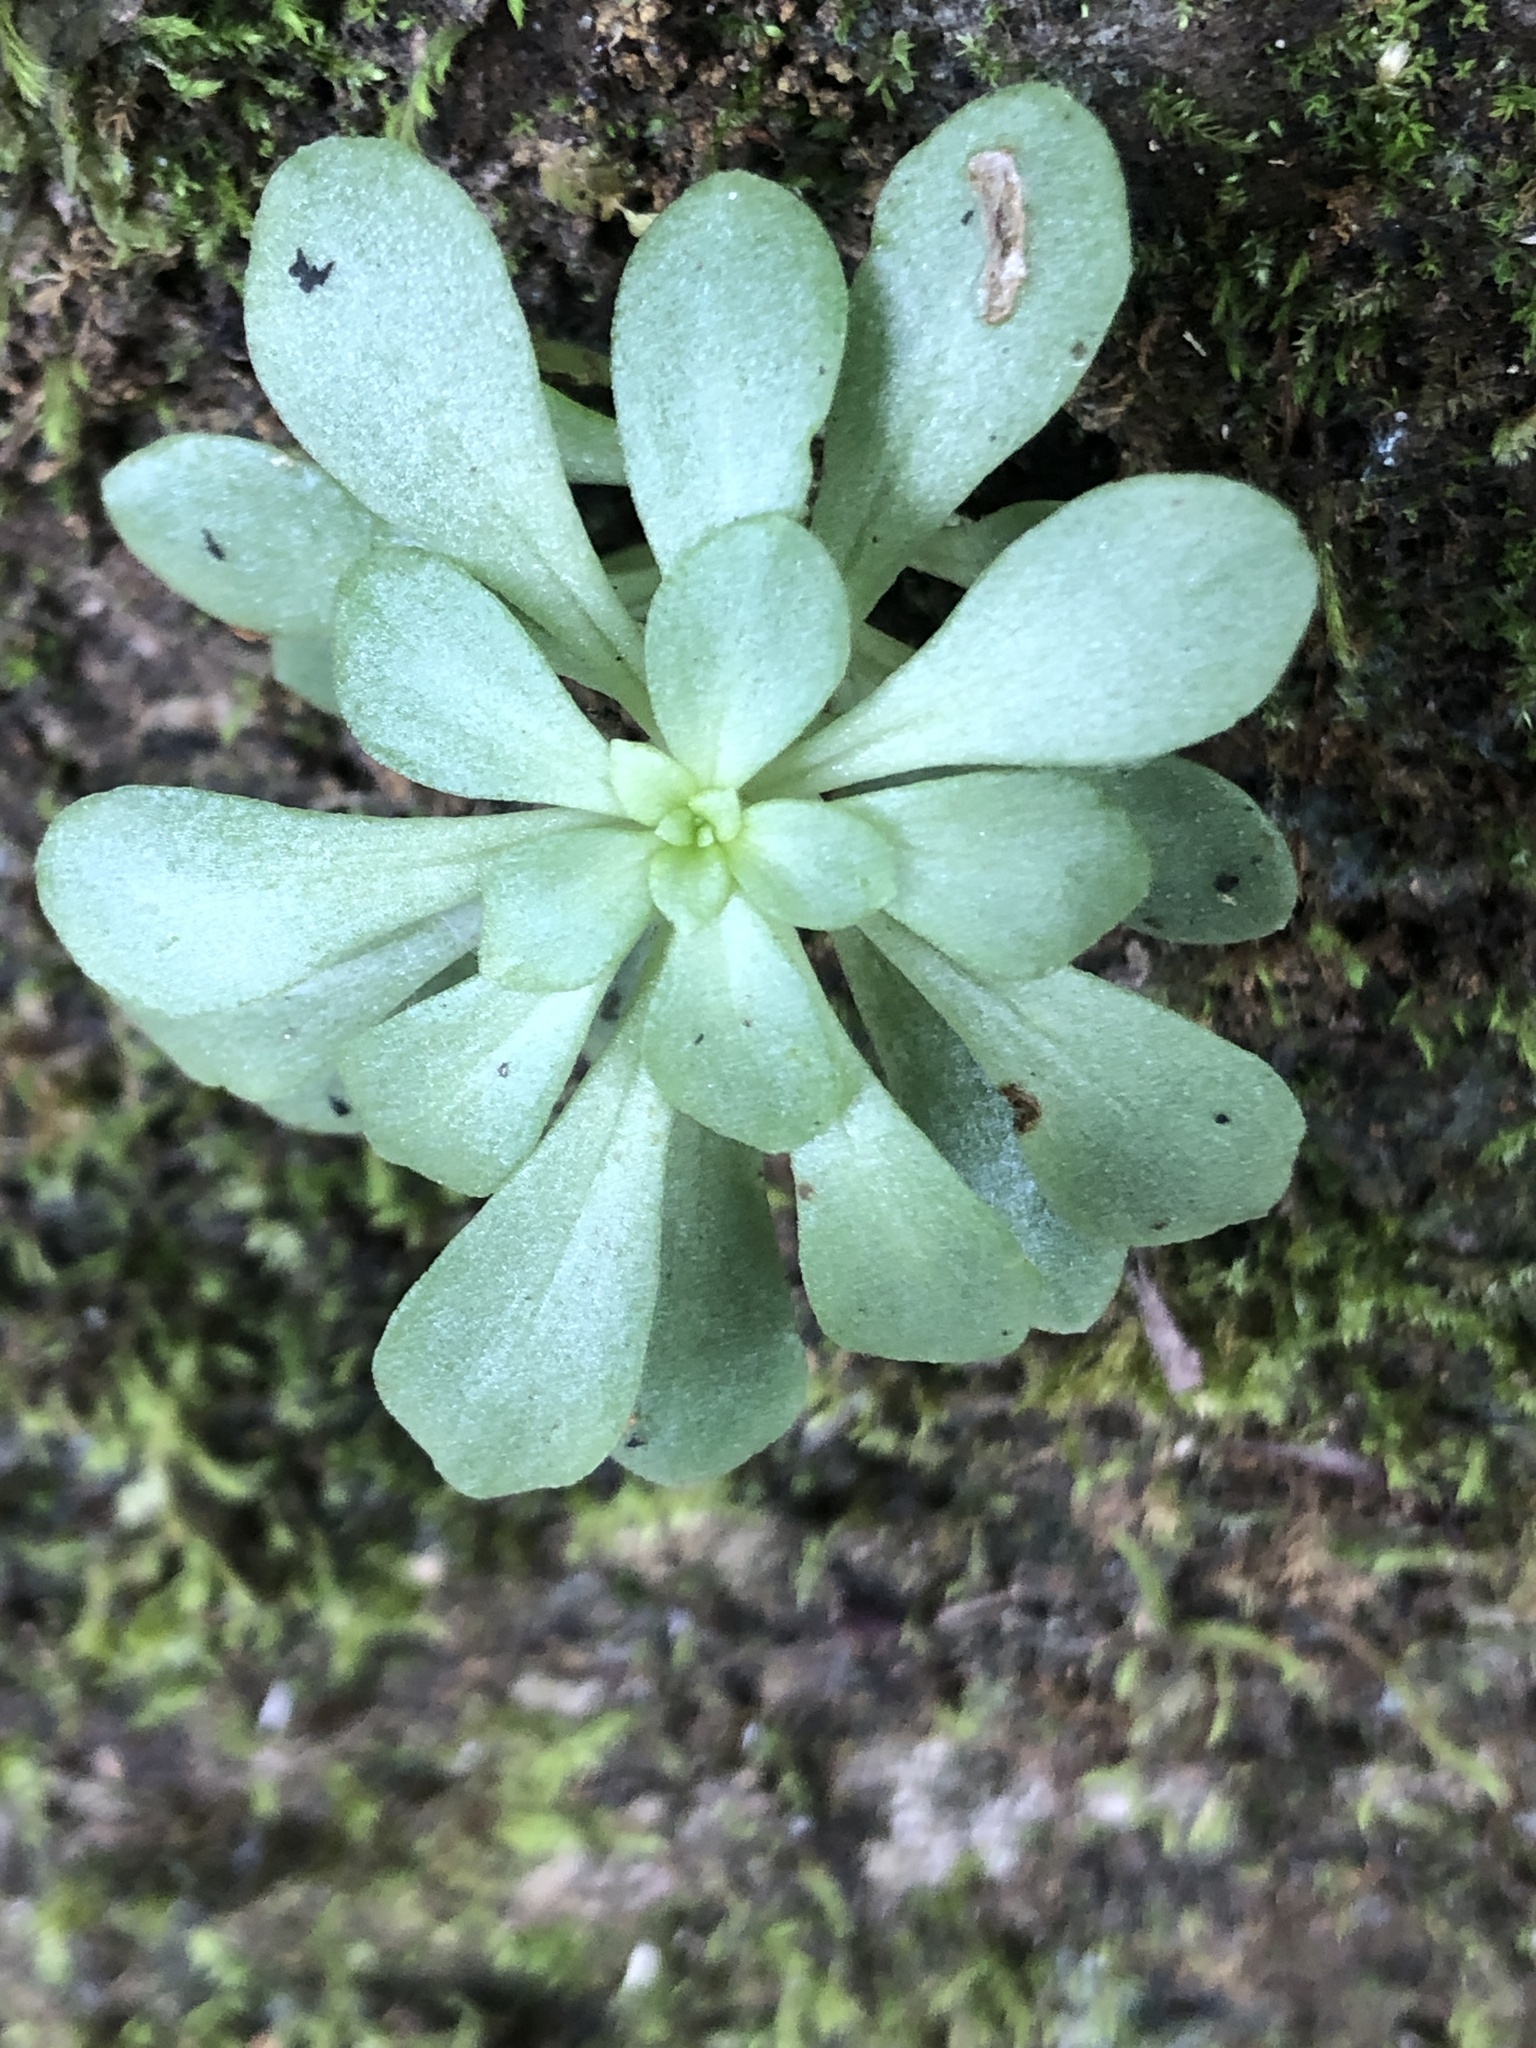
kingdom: Plantae
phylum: Tracheophyta
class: Magnoliopsida
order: Saxifragales
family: Crassulaceae
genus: Sedum
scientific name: Sedum actinocarpum
